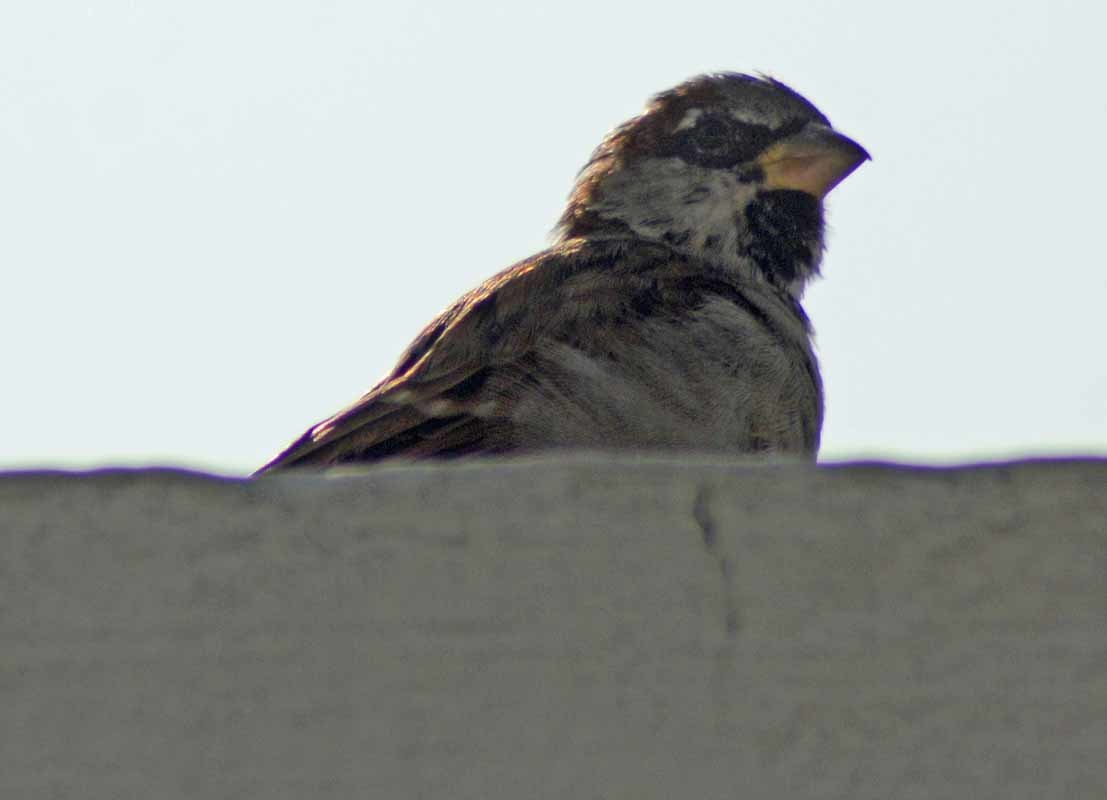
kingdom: Animalia
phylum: Chordata
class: Aves
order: Passeriformes
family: Passeridae
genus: Passer
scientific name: Passer domesticus
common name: House sparrow
